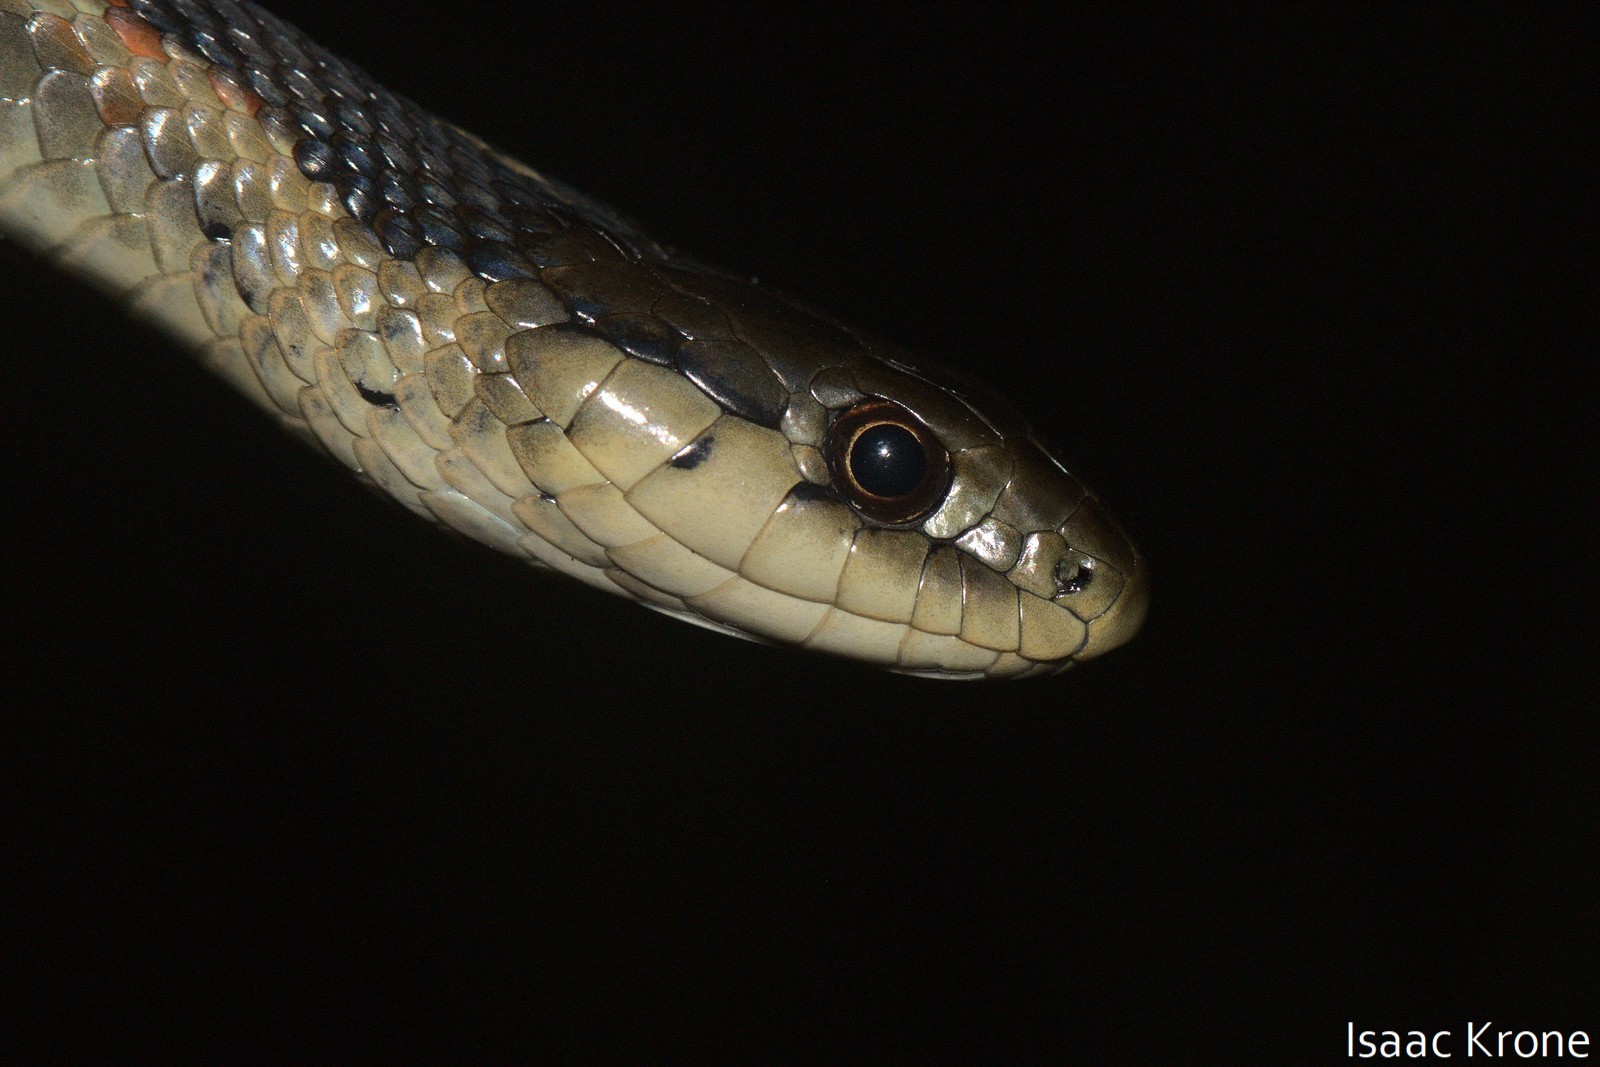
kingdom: Animalia
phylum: Chordata
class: Squamata
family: Colubridae
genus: Thamnophis
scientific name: Thamnophis elegans
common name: Western terrestrial garter snake
